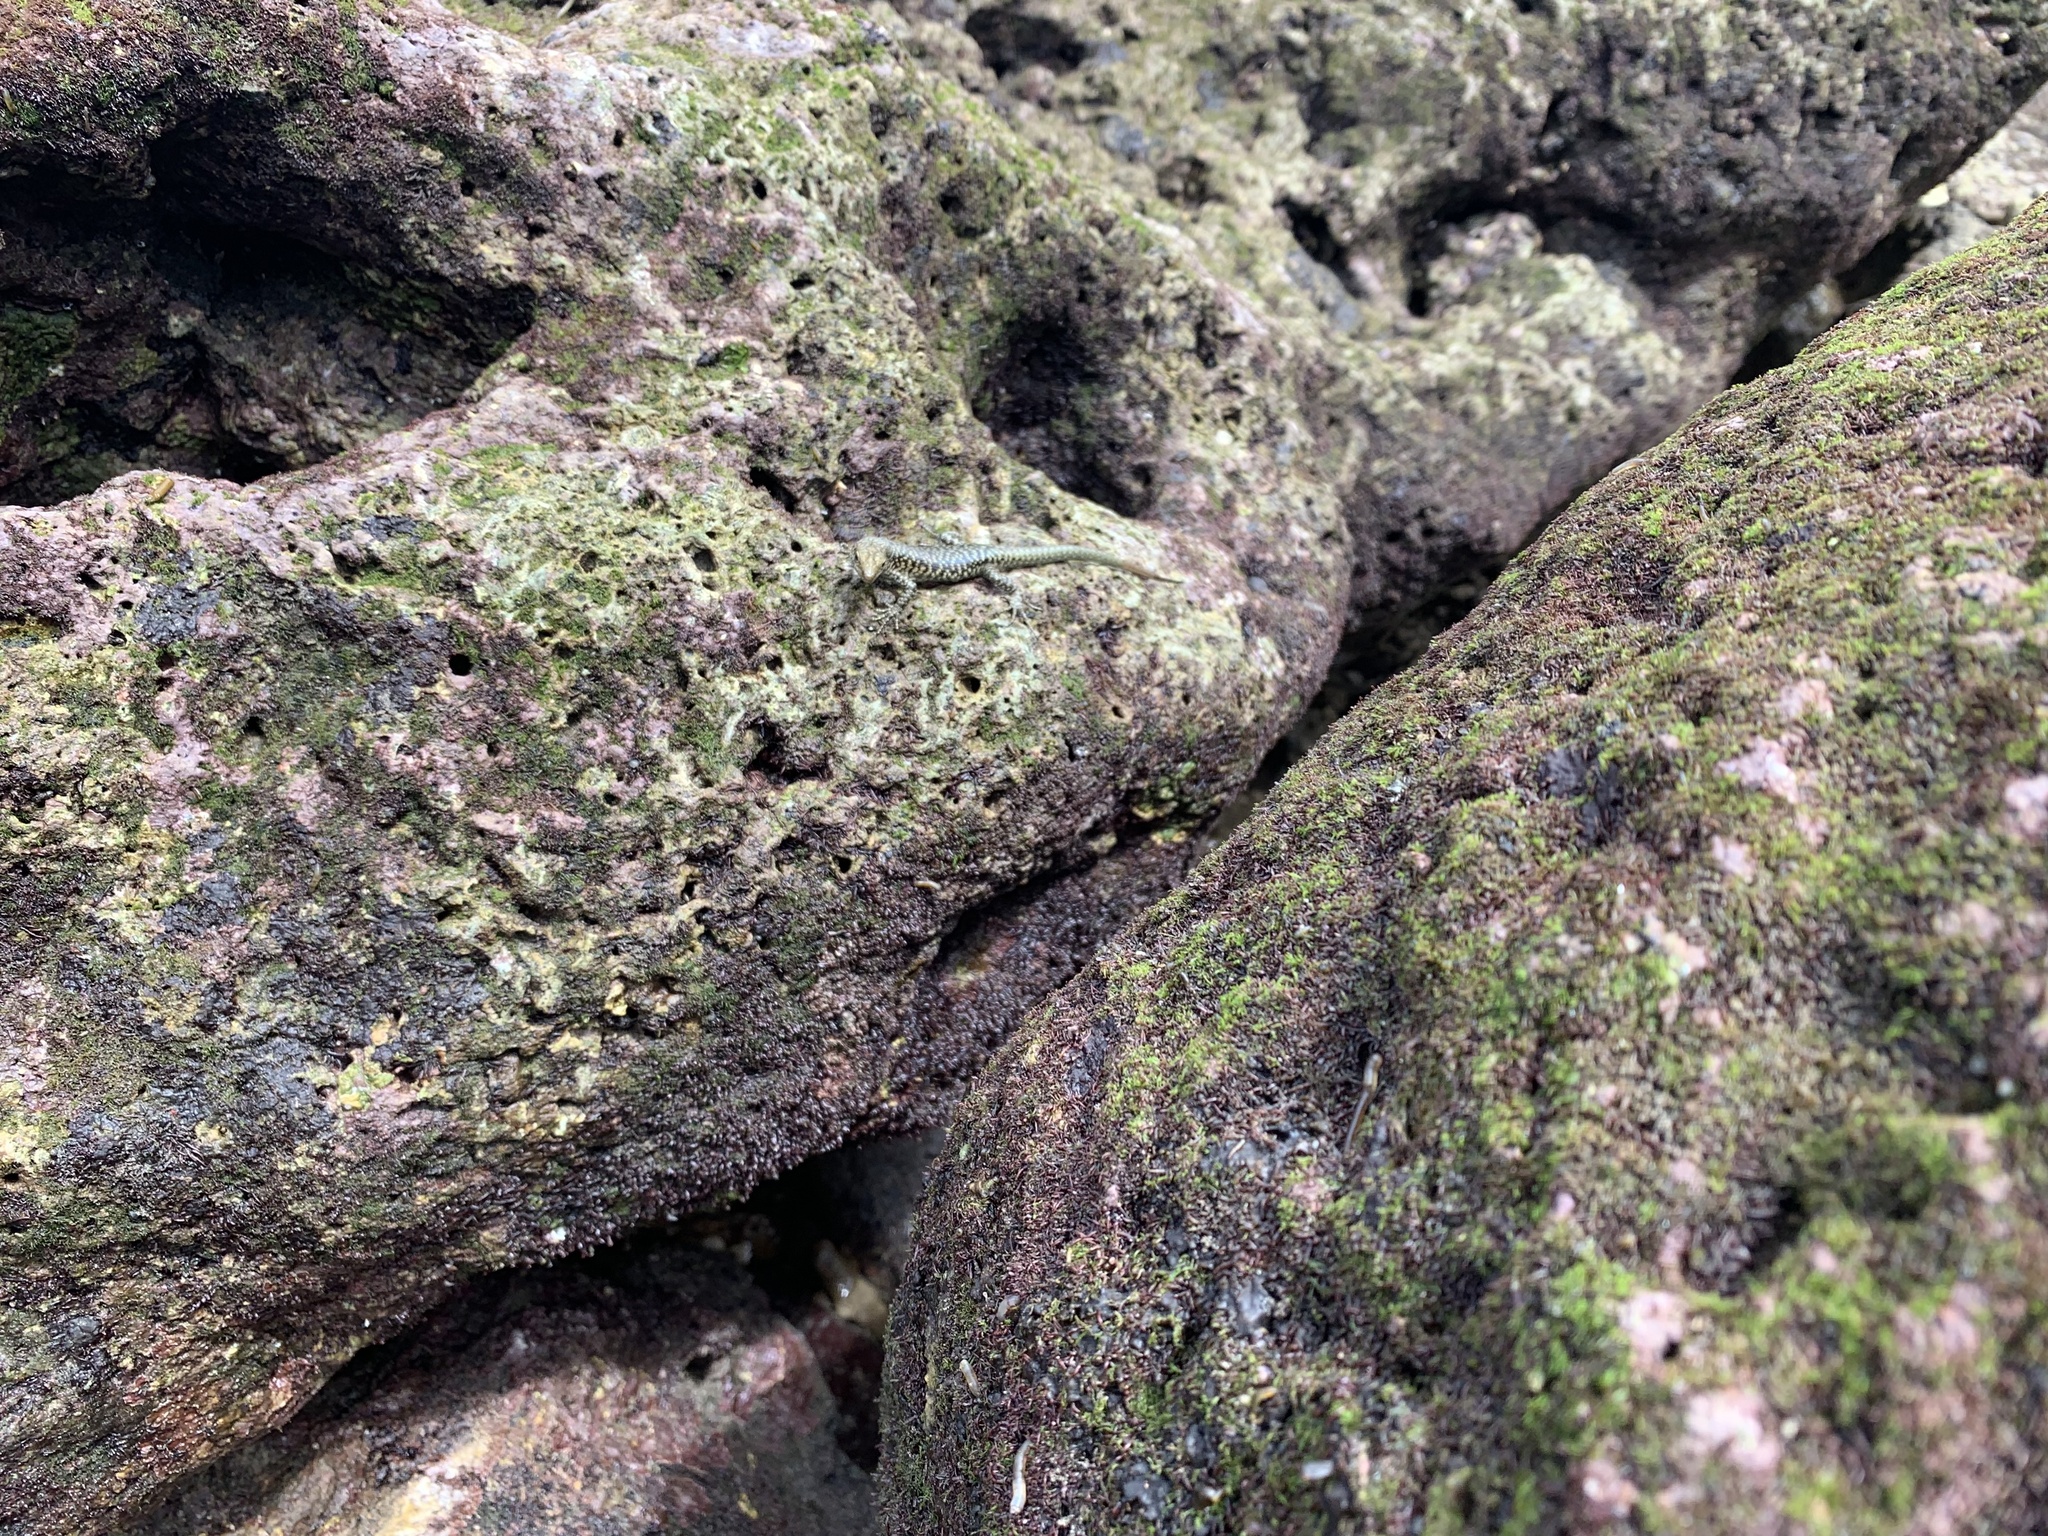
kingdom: Animalia
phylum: Chordata
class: Squamata
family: Scincidae
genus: Emoia
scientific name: Emoia atrocostata
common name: Littoral skink
